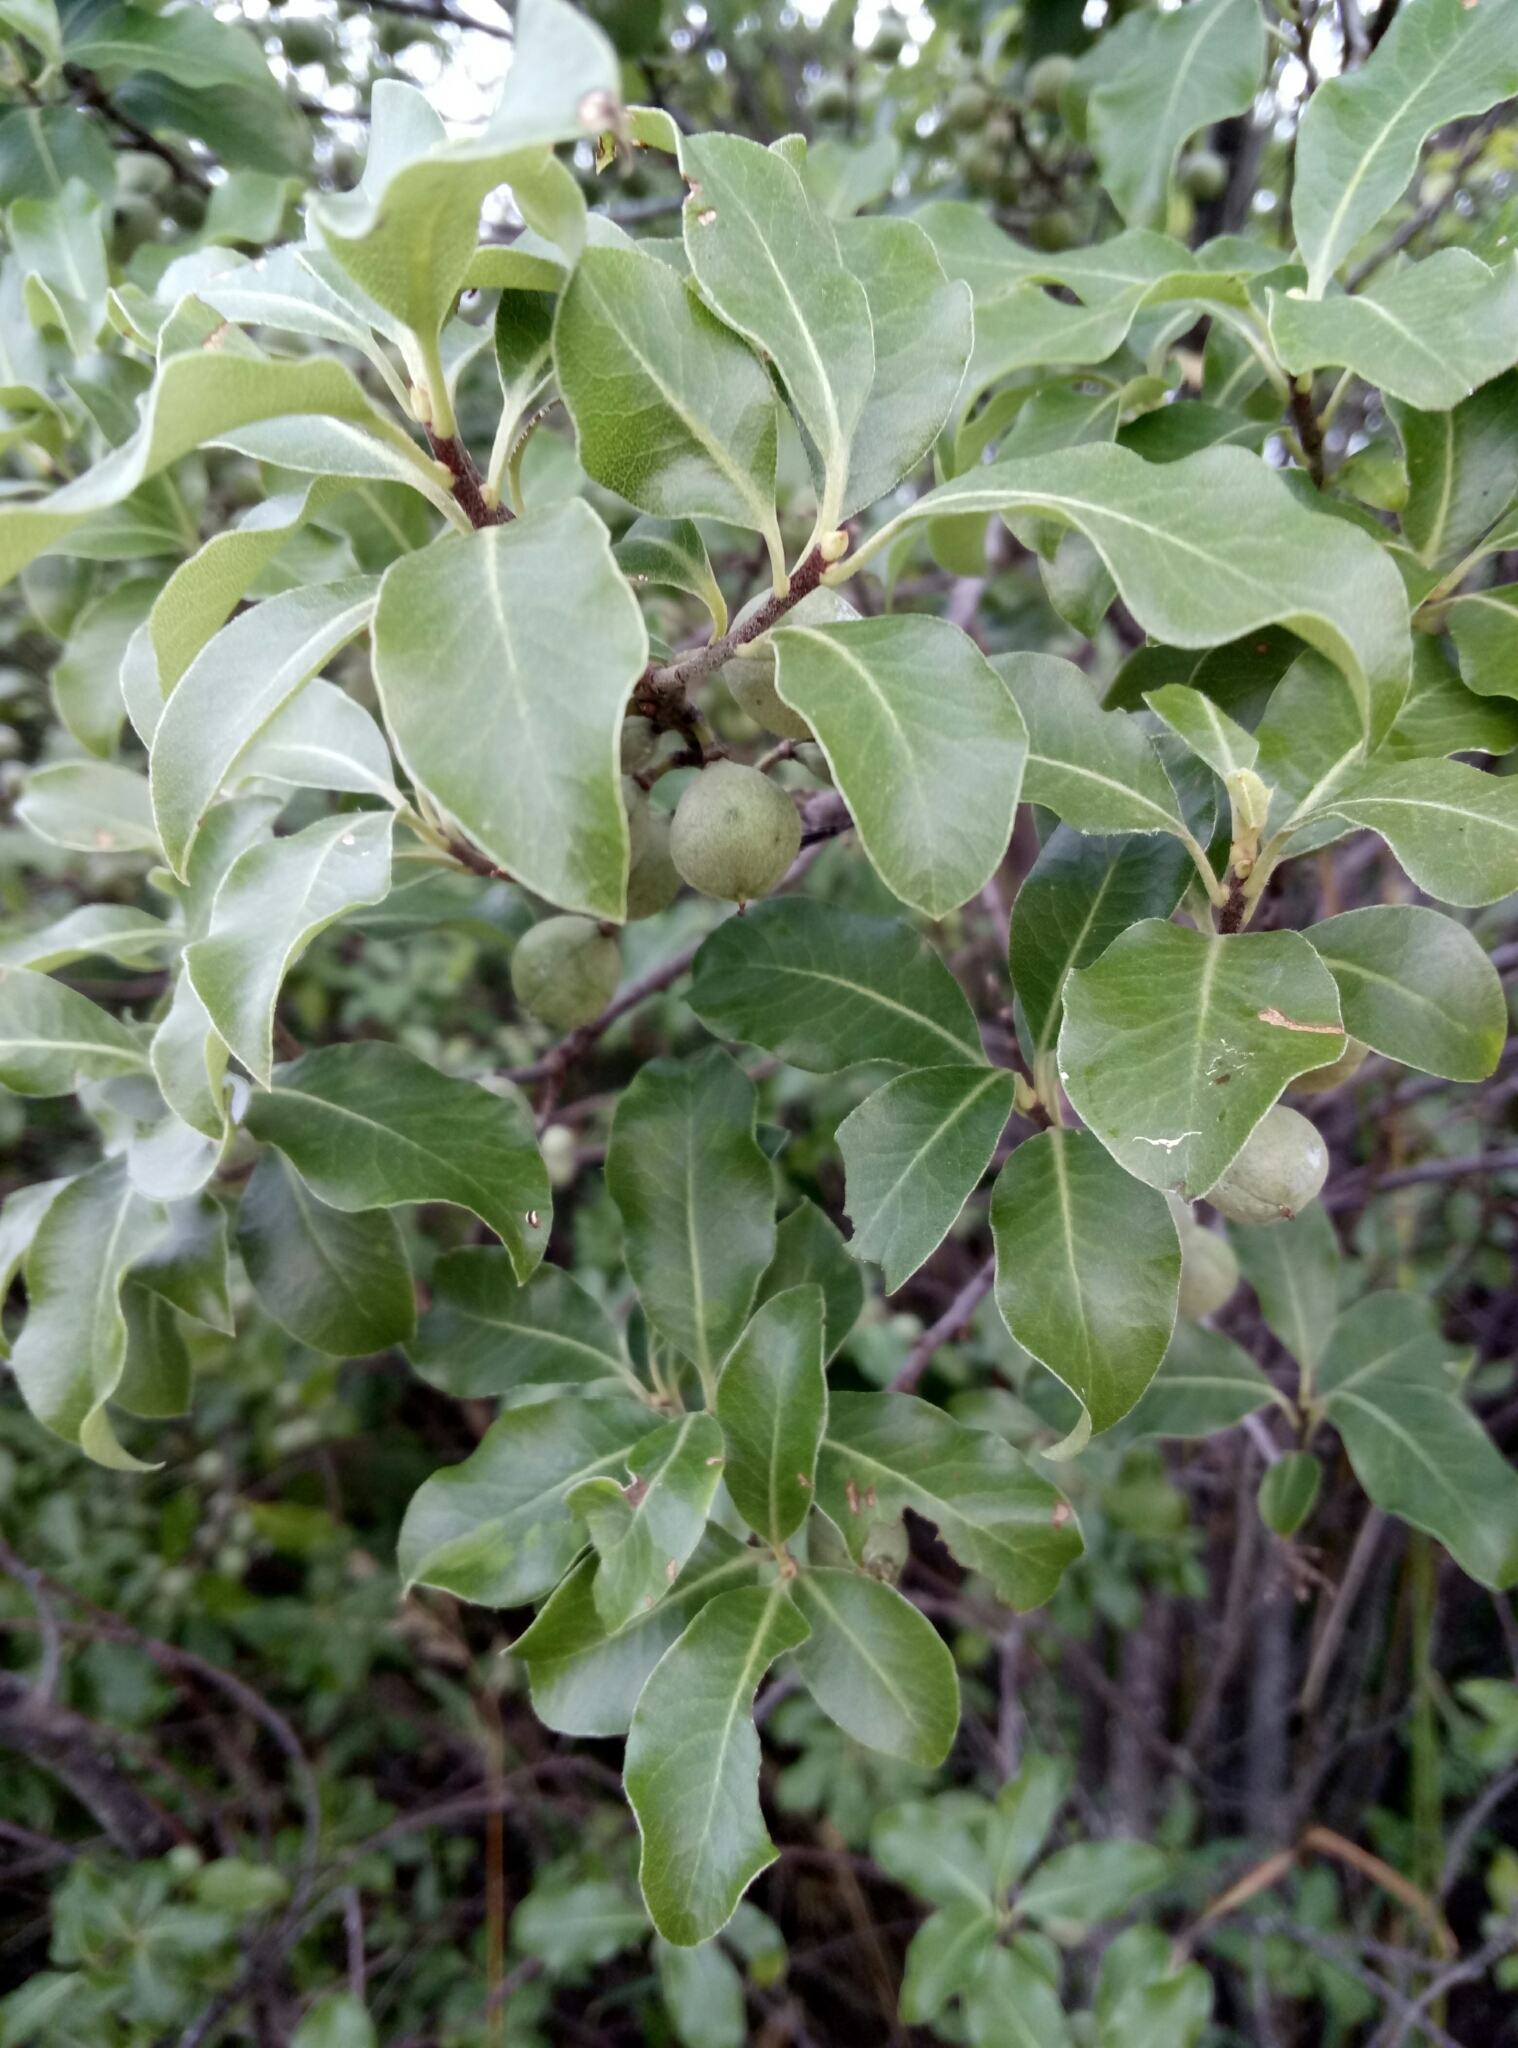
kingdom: Plantae
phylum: Tracheophyta
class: Magnoliopsida
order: Apiales
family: Pittosporaceae
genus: Pittosporum
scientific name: Pittosporum tenuifolium
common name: Kohuhu
